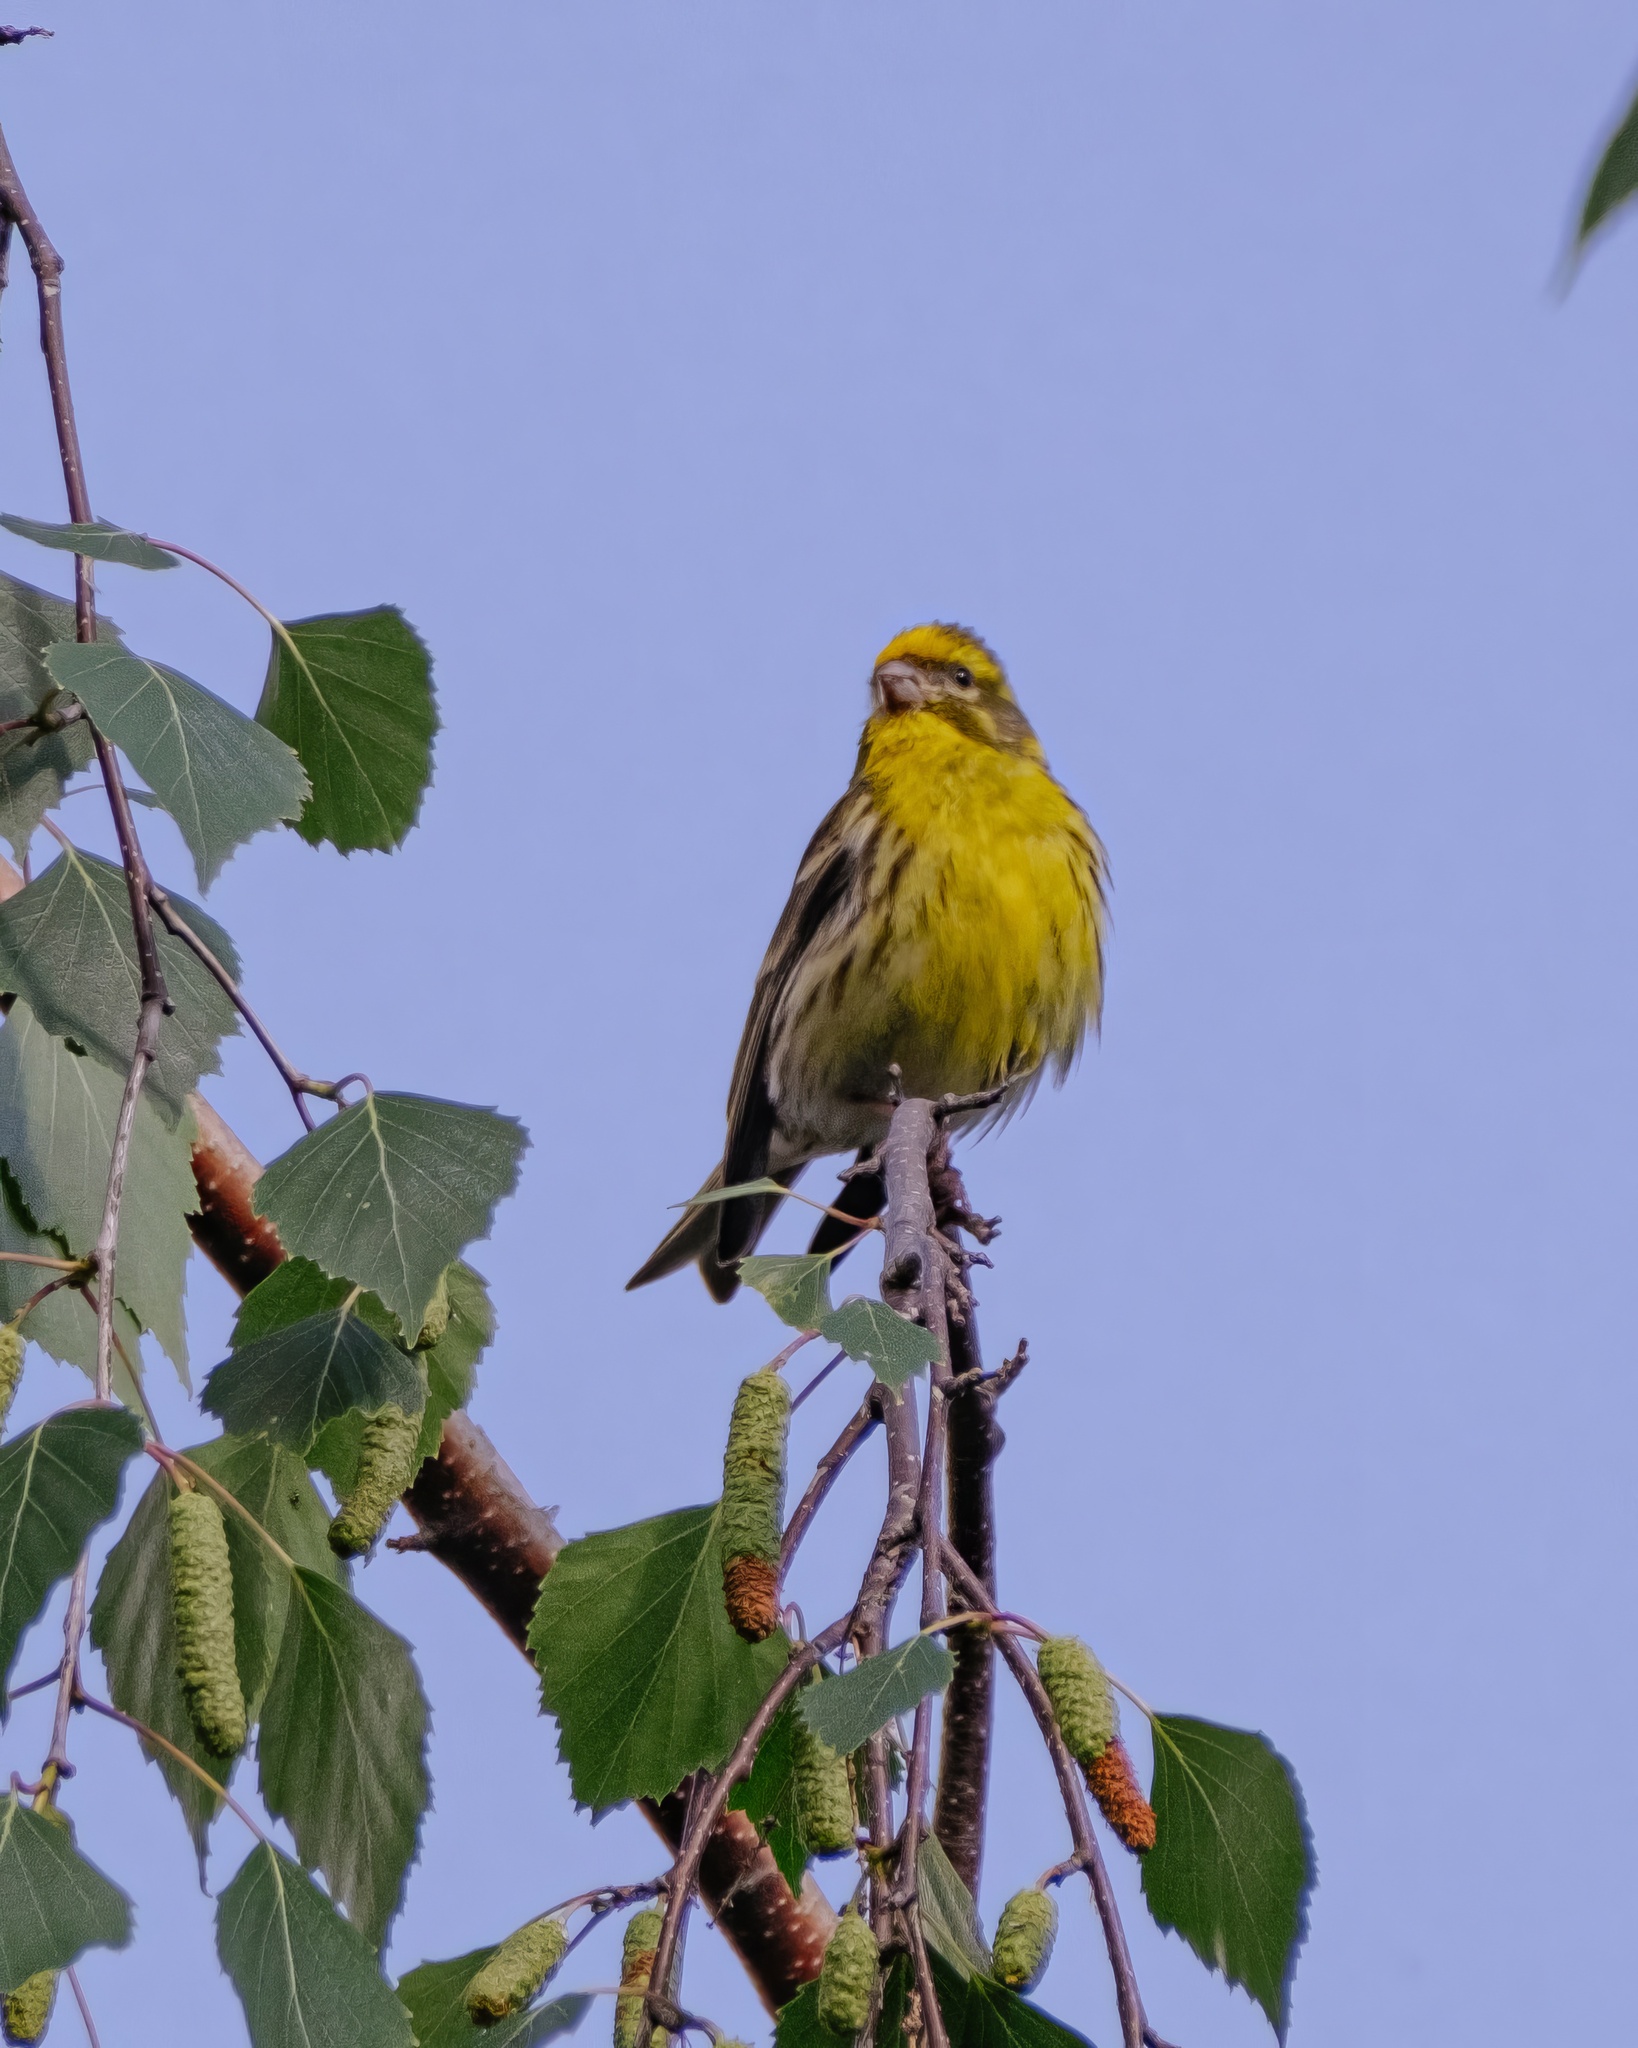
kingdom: Animalia
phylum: Chordata
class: Aves
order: Passeriformes
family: Fringillidae
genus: Serinus
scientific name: Serinus serinus
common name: European serin
